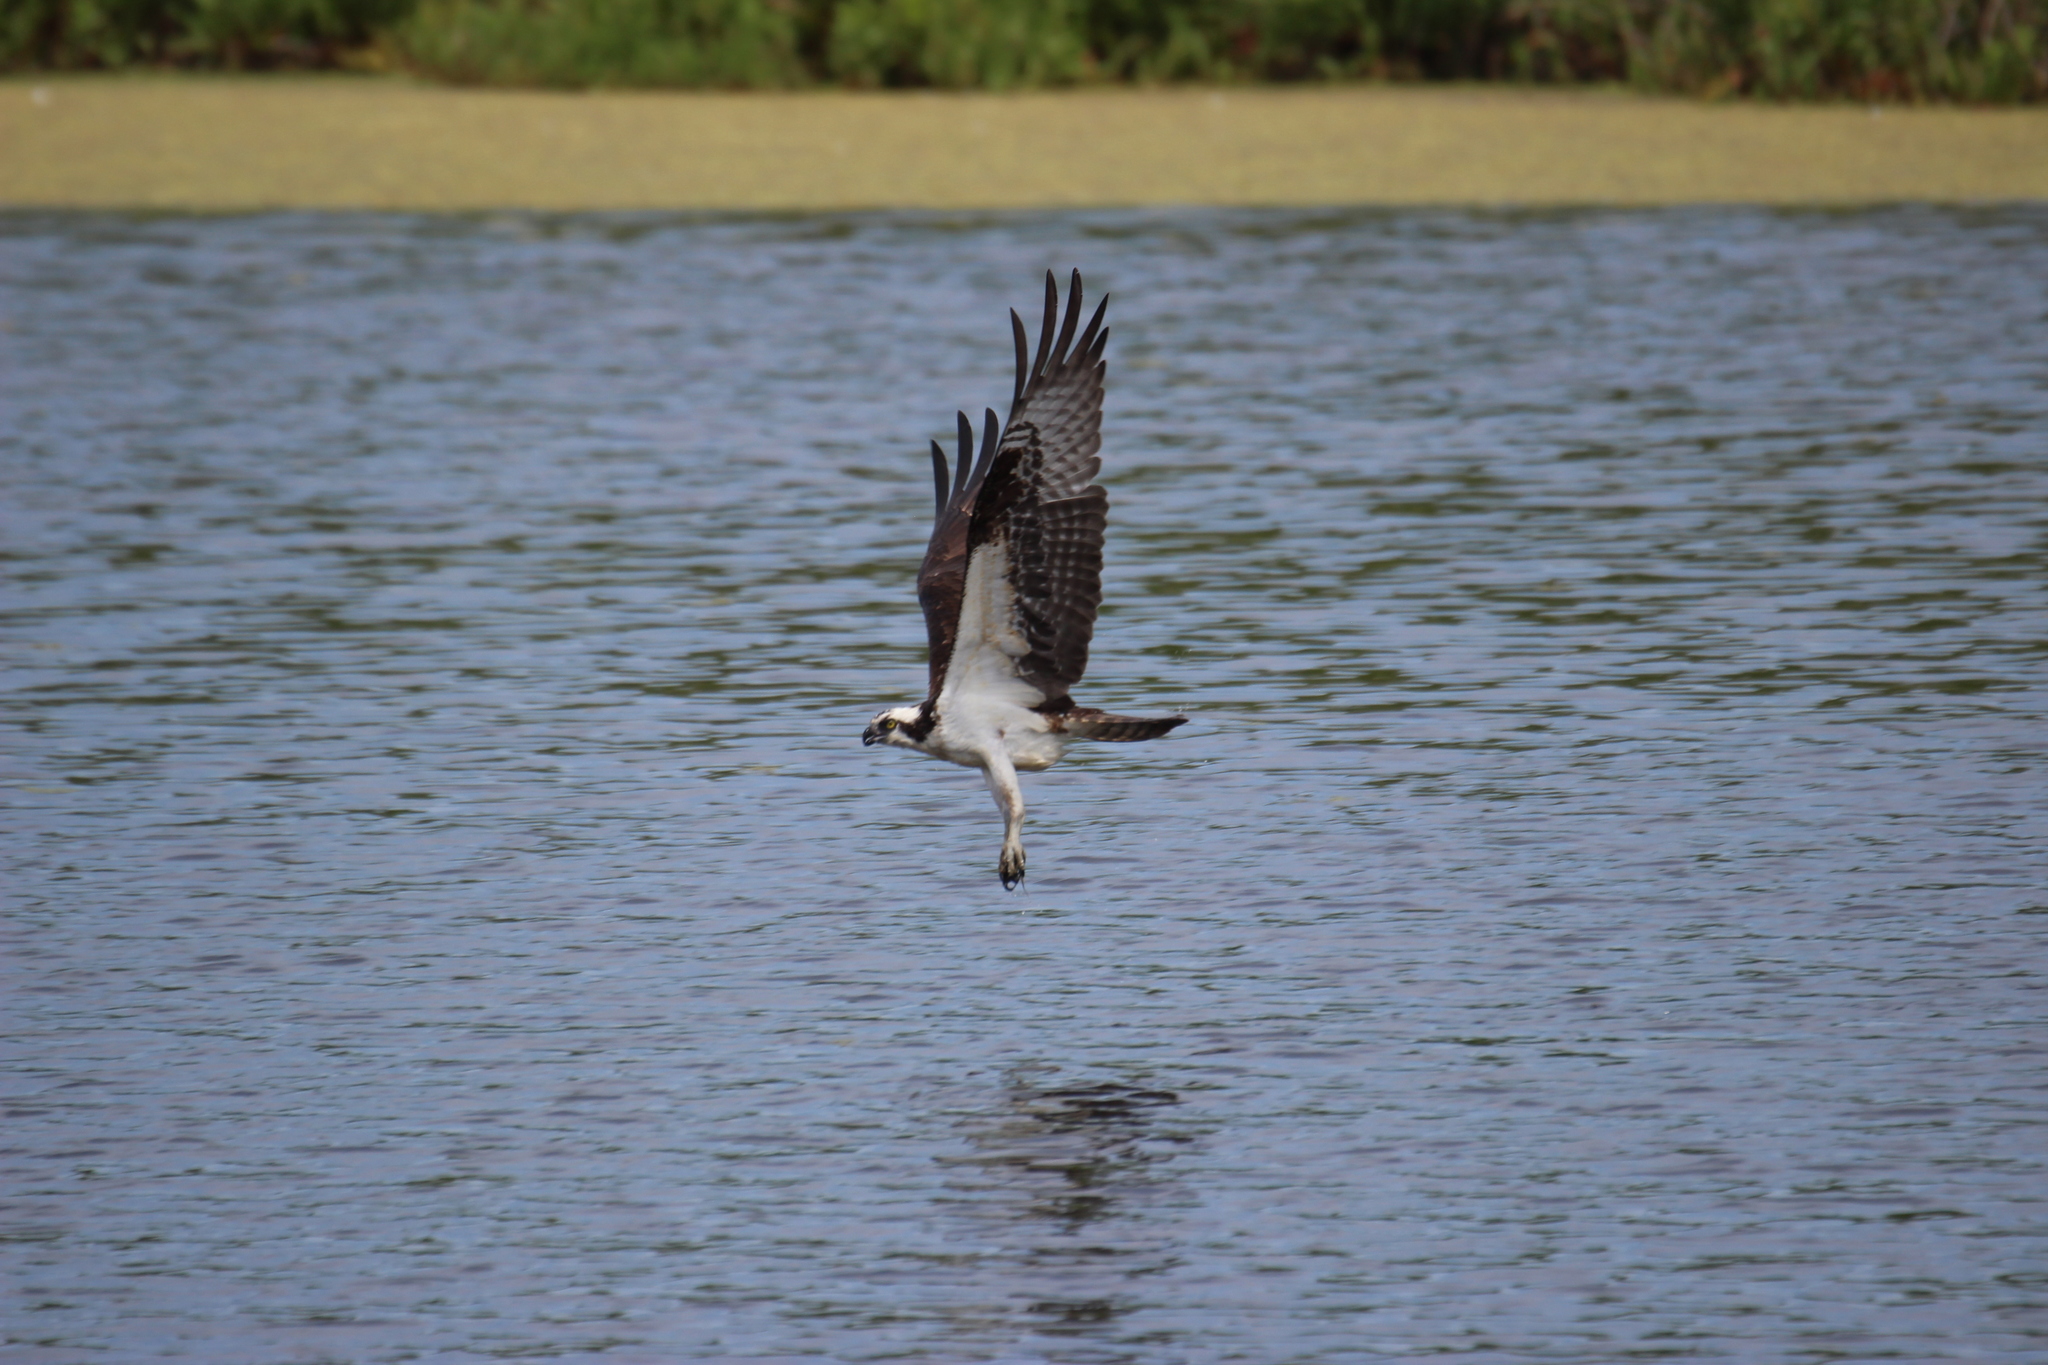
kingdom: Animalia
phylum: Chordata
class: Aves
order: Accipitriformes
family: Pandionidae
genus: Pandion
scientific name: Pandion haliaetus
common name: Osprey
